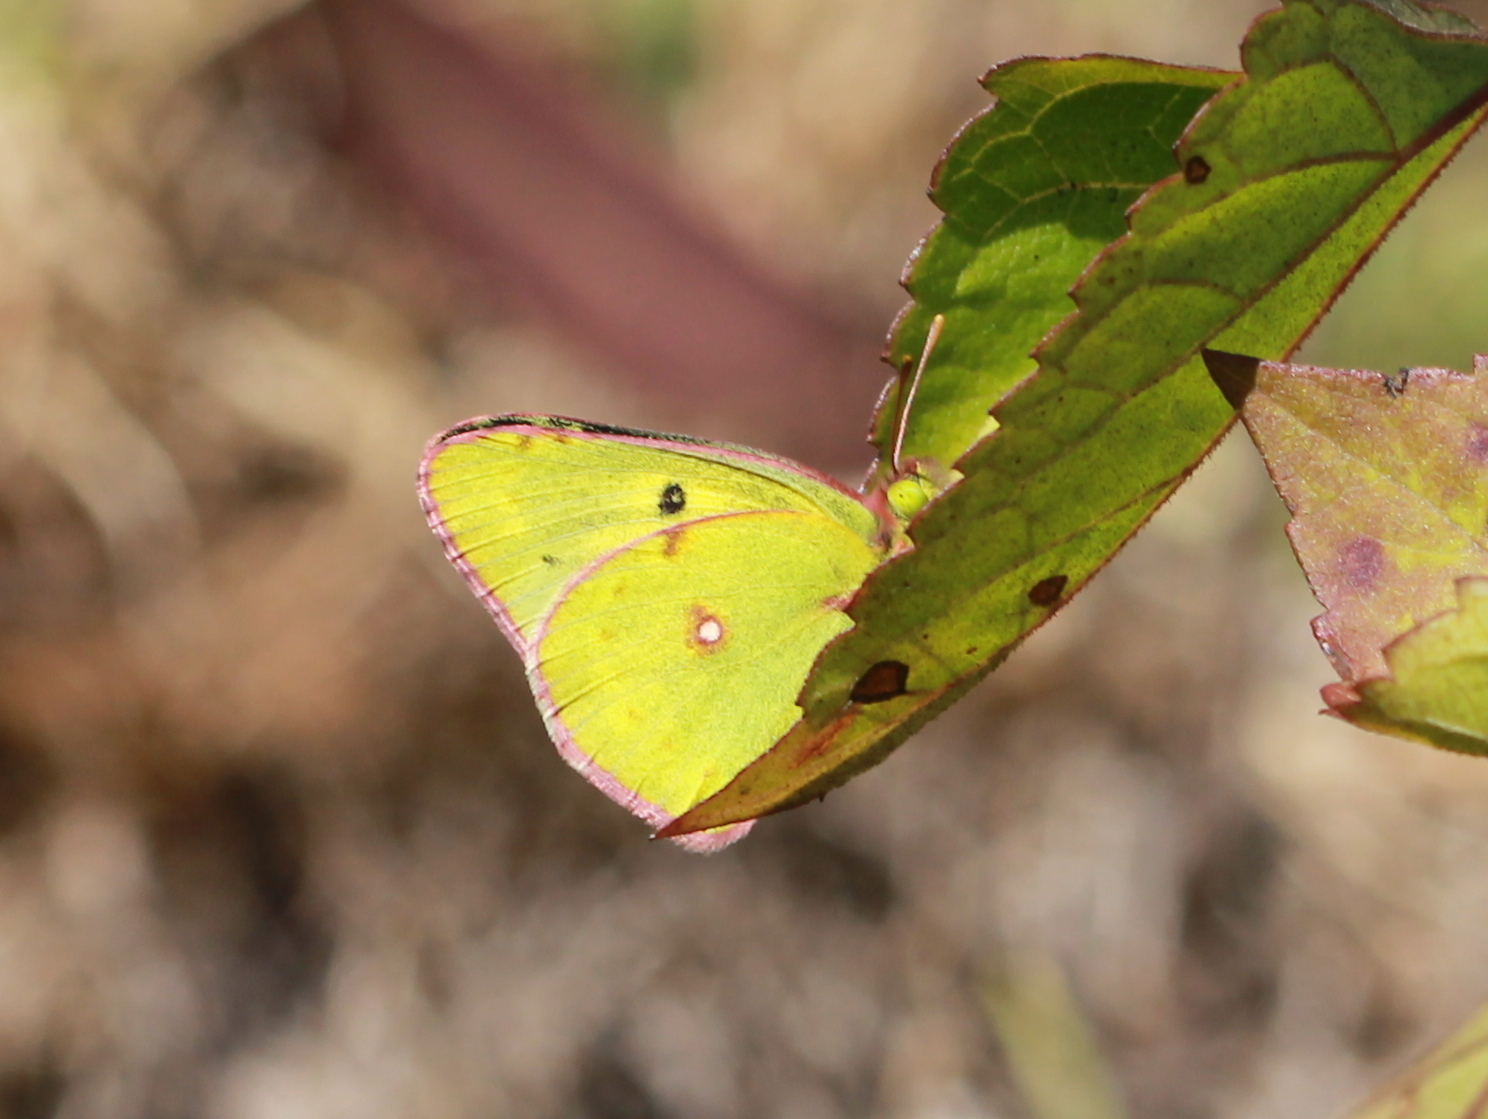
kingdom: Animalia
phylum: Arthropoda
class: Insecta
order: Lepidoptera
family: Pieridae
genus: Colias
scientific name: Colias nilagiriensis
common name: Nilgiri clouded yellow
